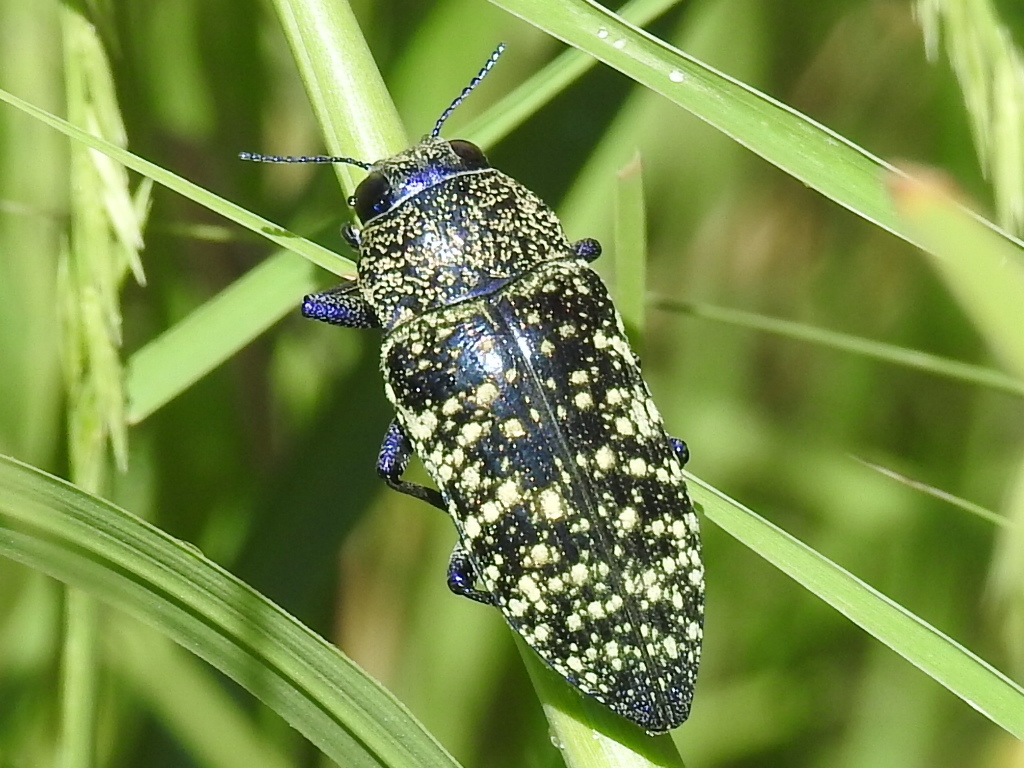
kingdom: Animalia
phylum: Arthropoda
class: Insecta
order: Coleoptera
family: Buprestidae
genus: Lampetis
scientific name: Lampetis webbii
